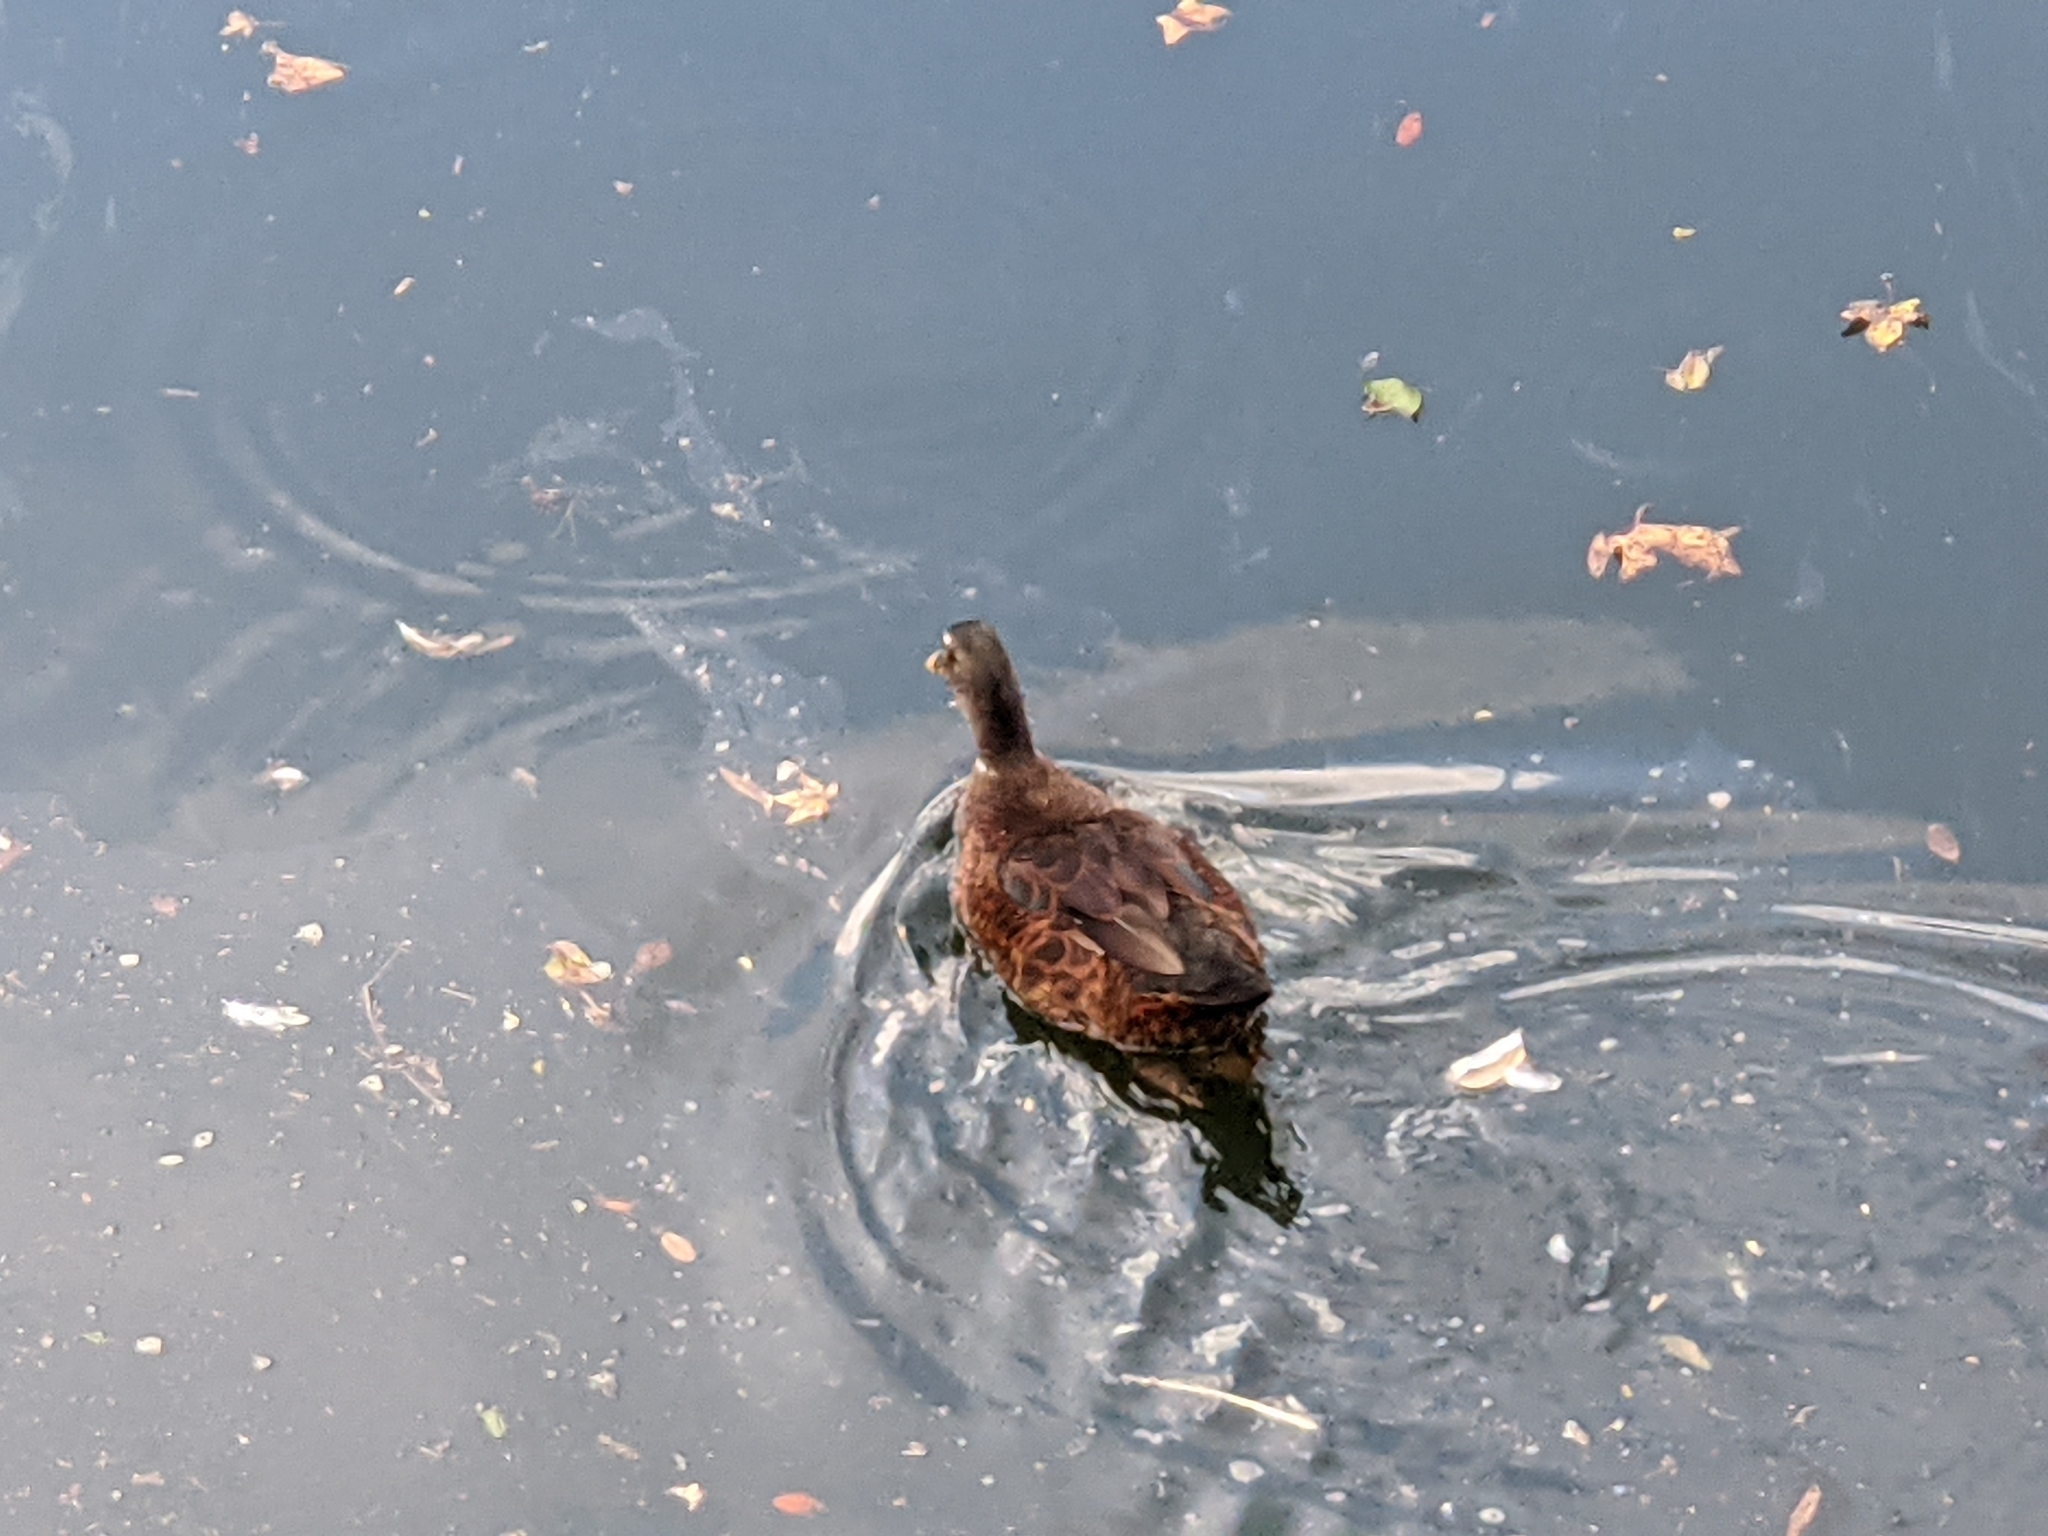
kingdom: Animalia
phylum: Chordata
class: Aves
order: Anseriformes
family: Anatidae
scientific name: Anatidae
